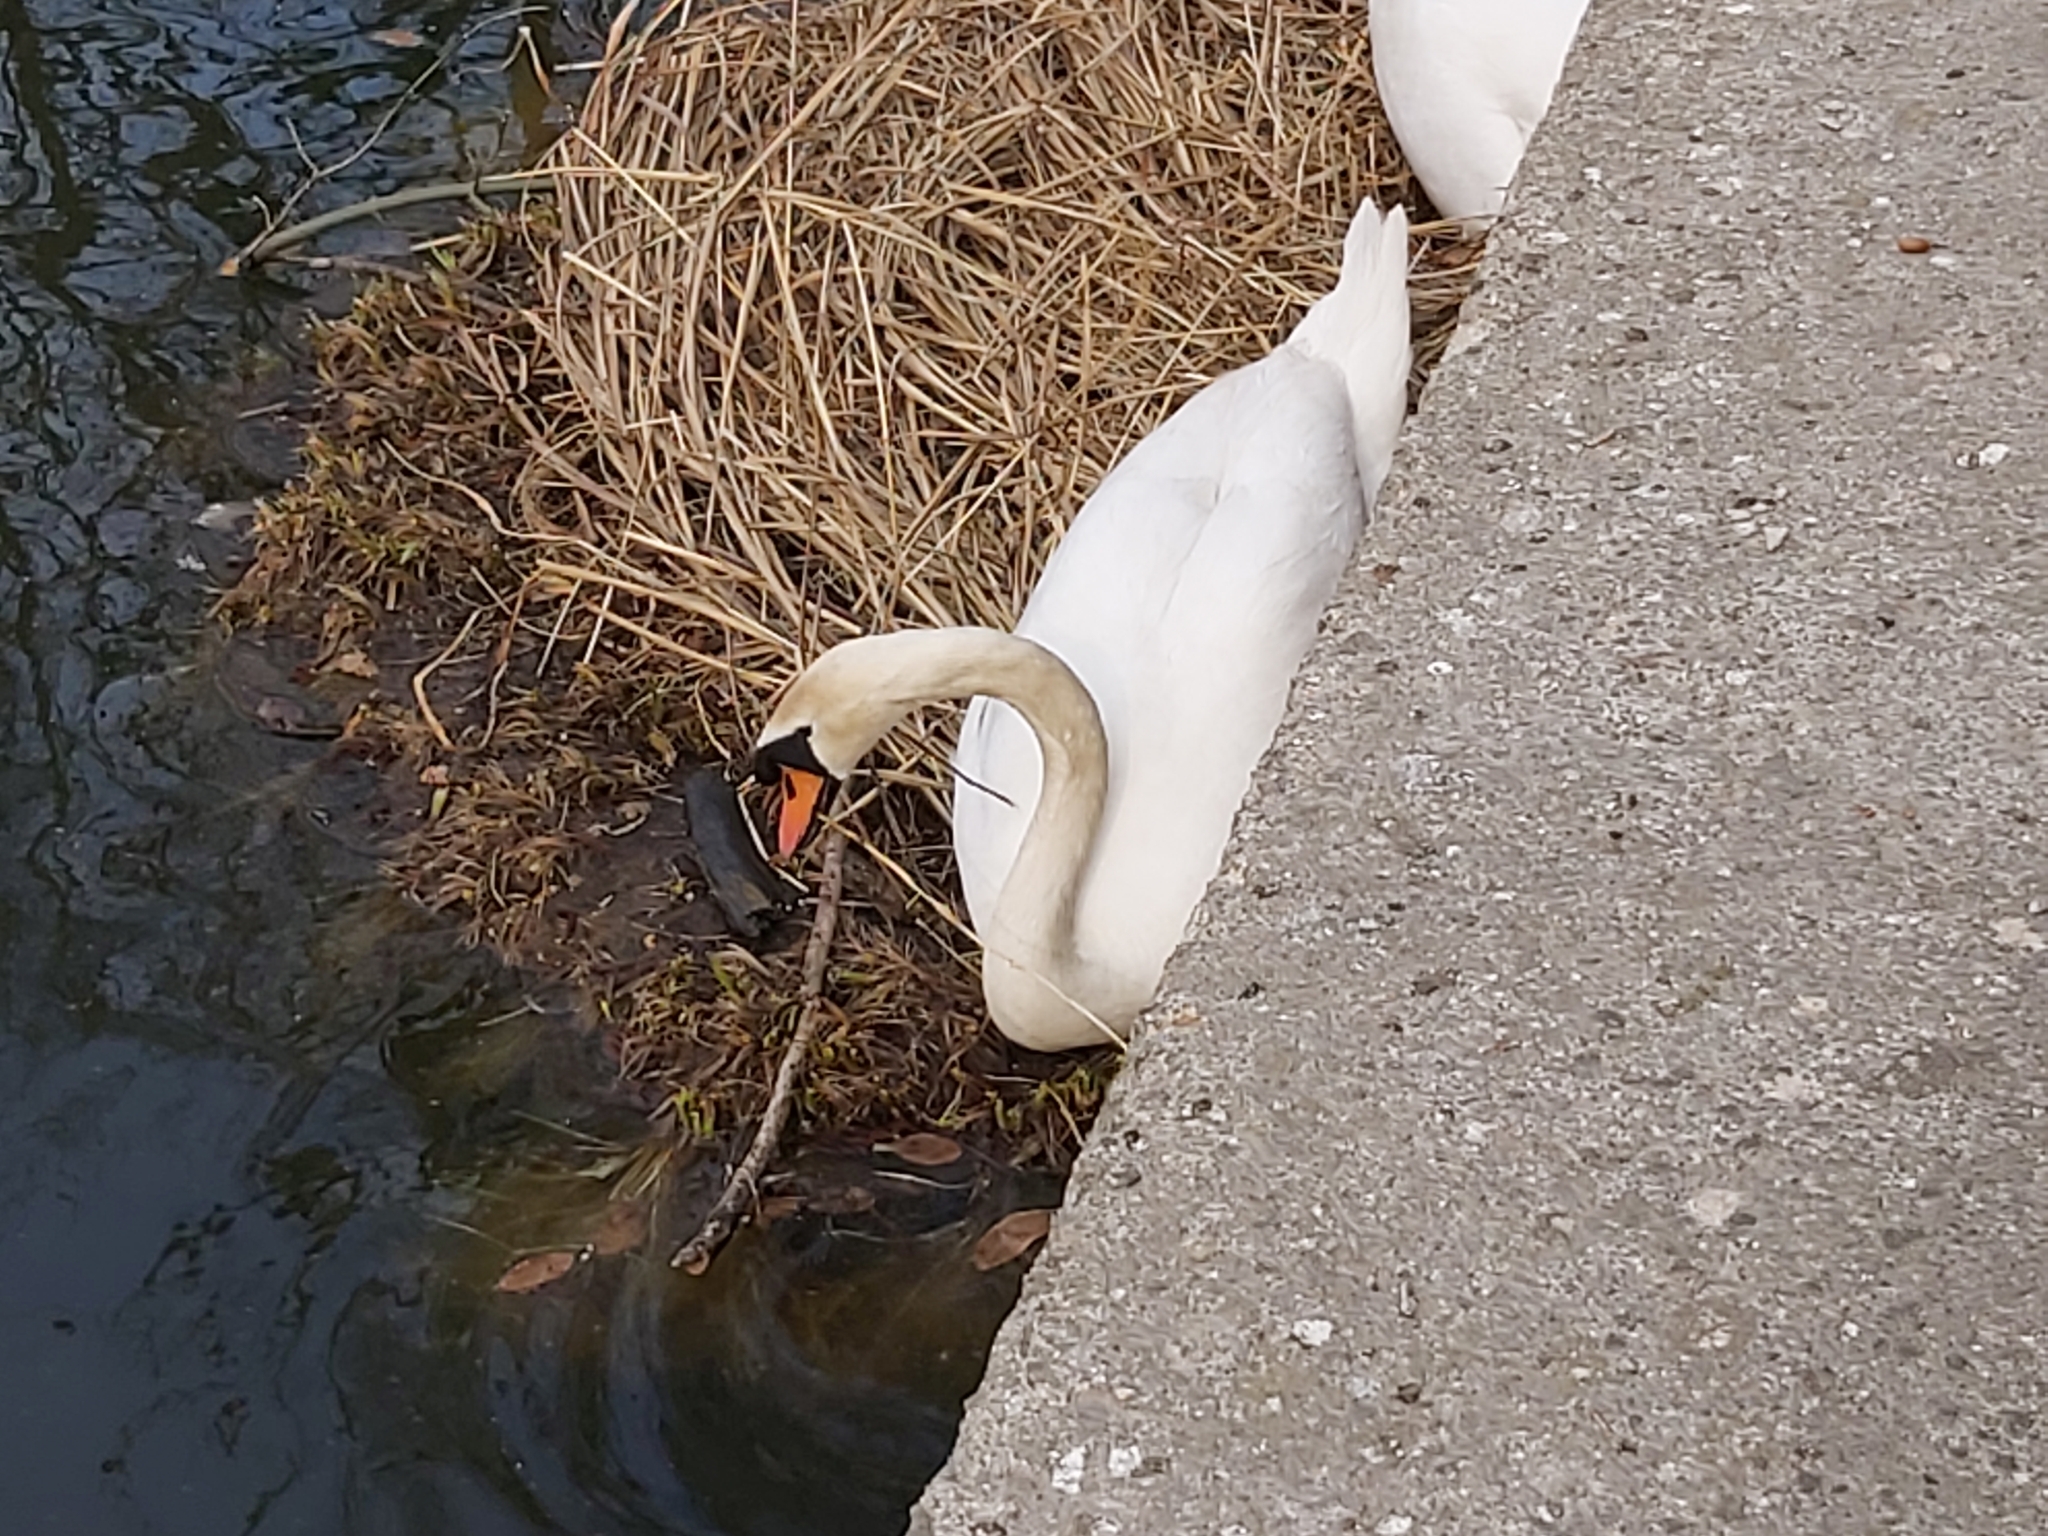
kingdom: Animalia
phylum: Chordata
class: Aves
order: Anseriformes
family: Anatidae
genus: Cygnus
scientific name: Cygnus olor
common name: Mute swan
